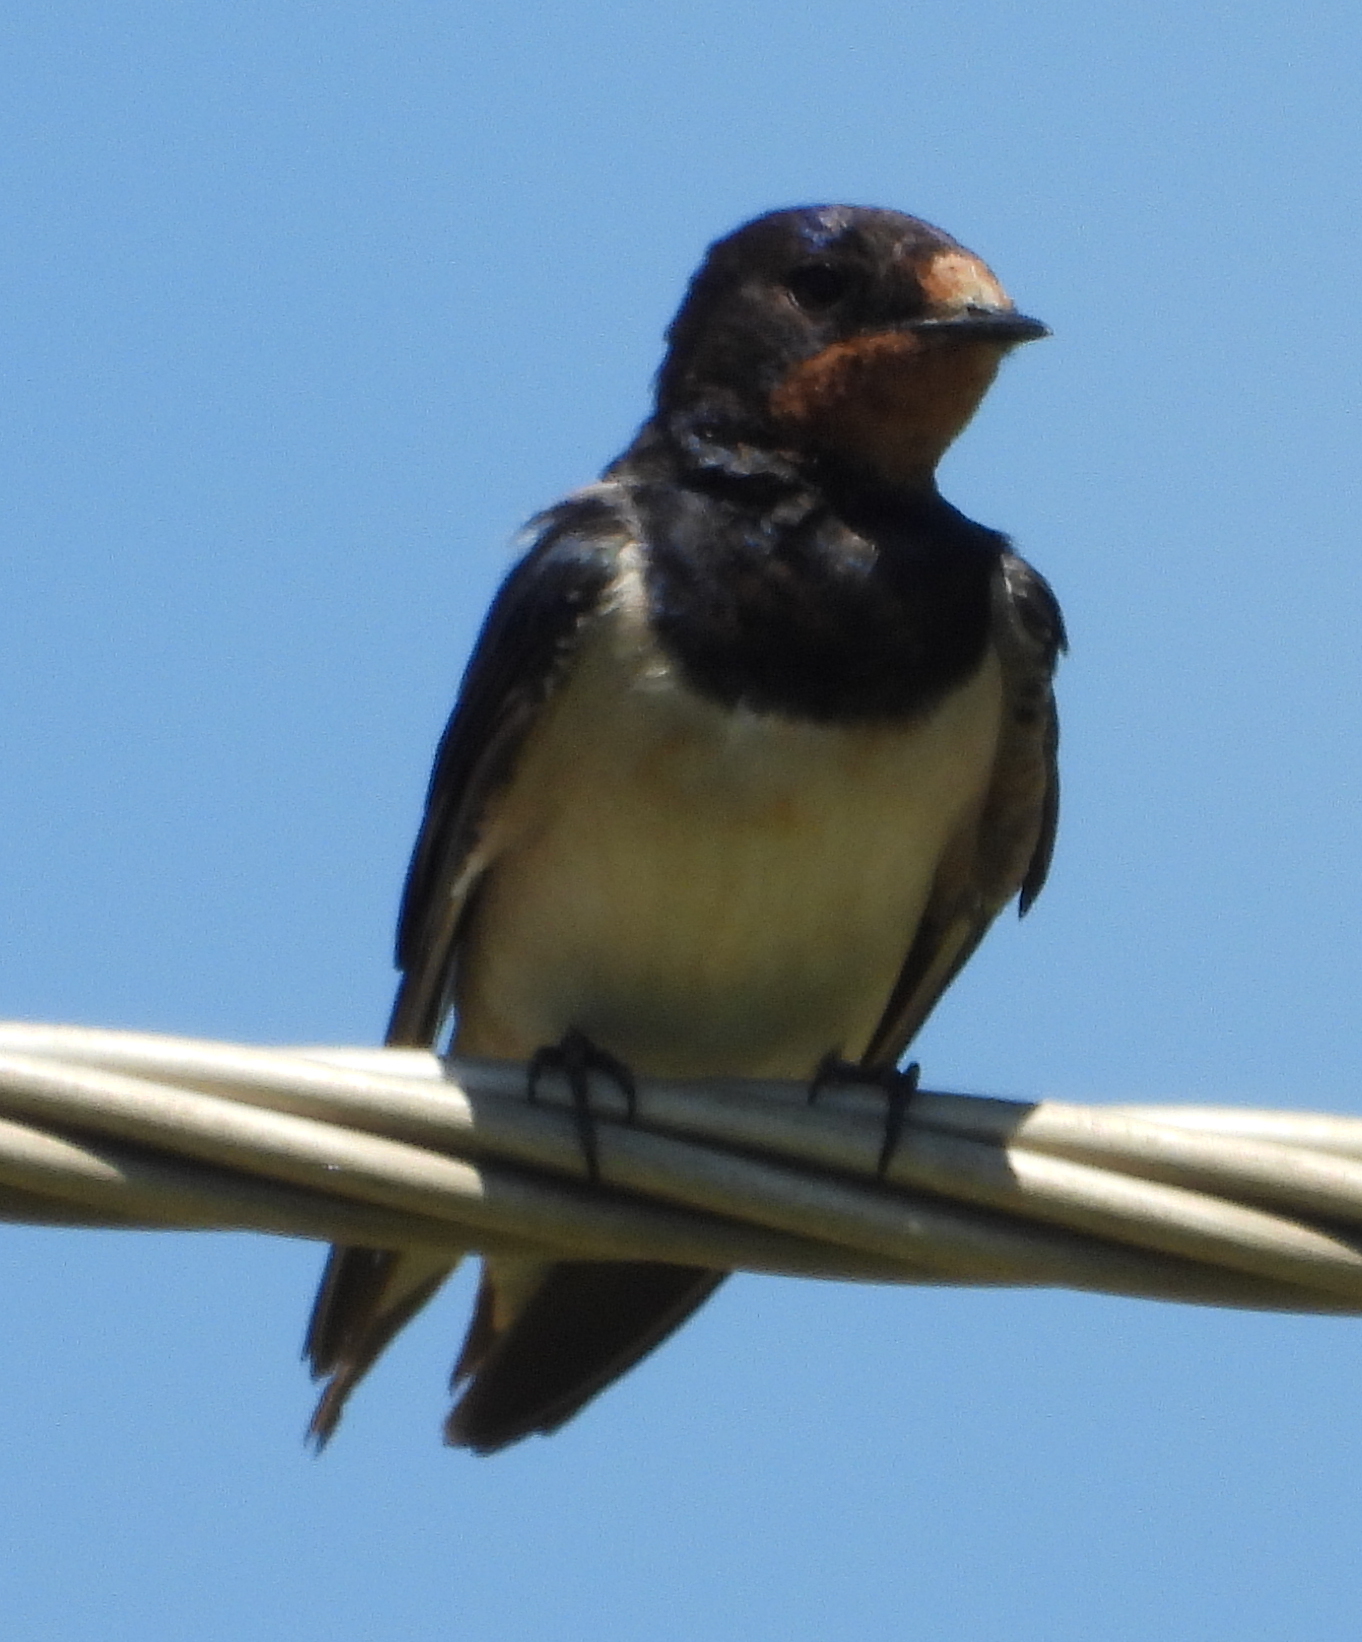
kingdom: Animalia
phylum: Chordata
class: Aves
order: Passeriformes
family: Hirundinidae
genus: Hirundo
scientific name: Hirundo rustica
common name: Barn swallow
